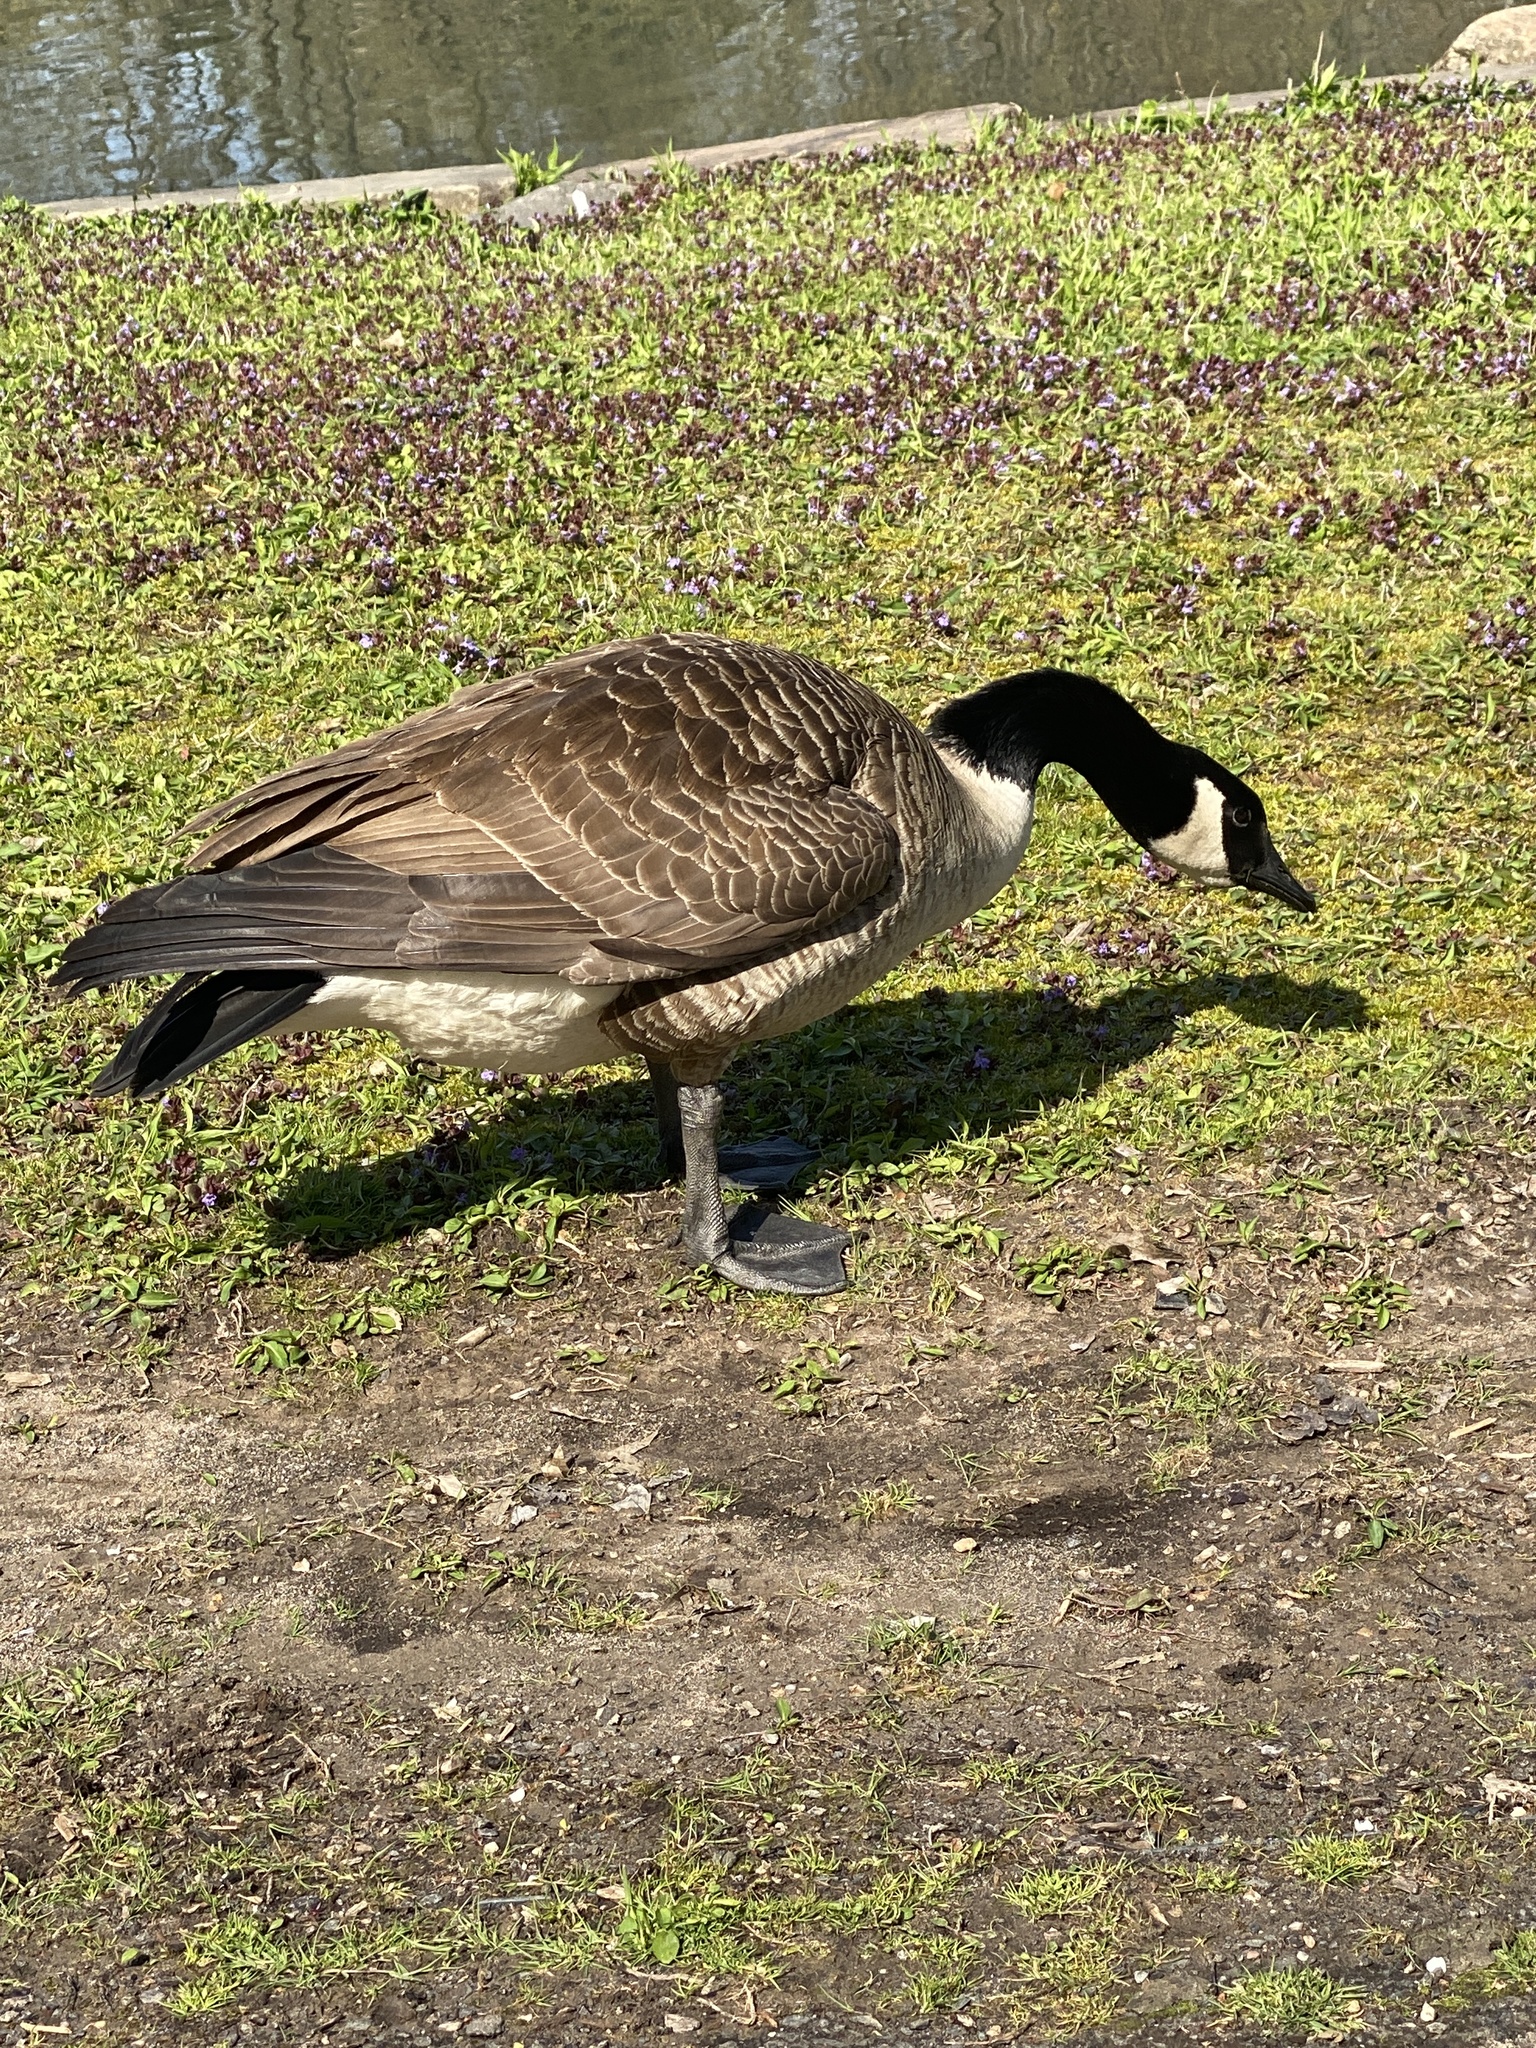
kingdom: Animalia
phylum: Chordata
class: Aves
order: Anseriformes
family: Anatidae
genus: Branta
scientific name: Branta canadensis
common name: Canada goose
